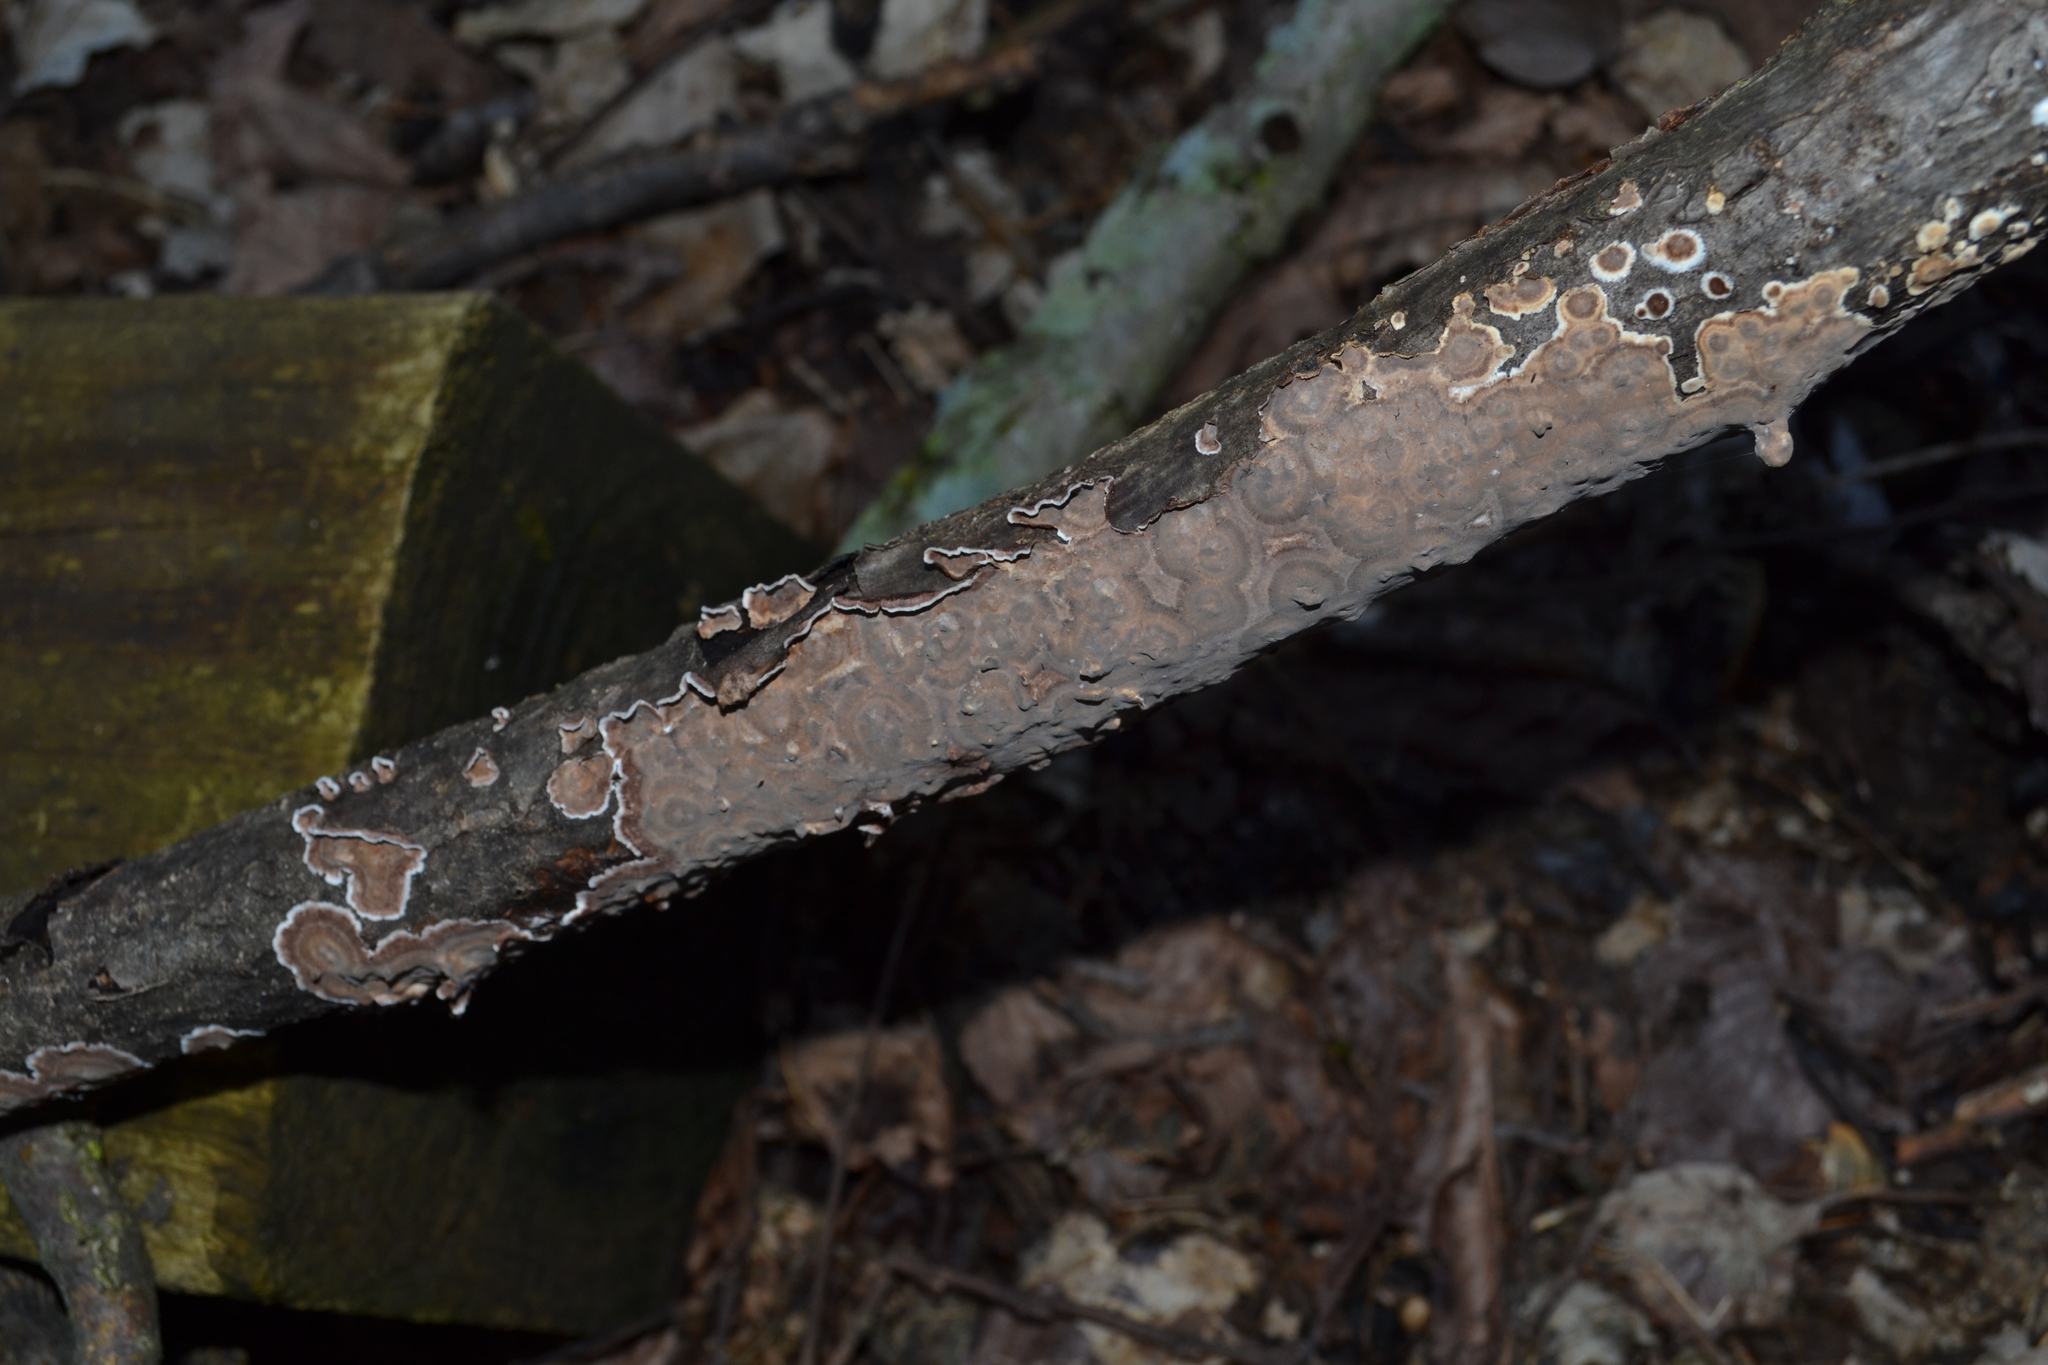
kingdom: Fungi
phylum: Basidiomycota
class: Agaricomycetes
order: Russulales
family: Peniophoraceae
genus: Peniophora
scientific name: Peniophora albobadia
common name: Giraffe spots
